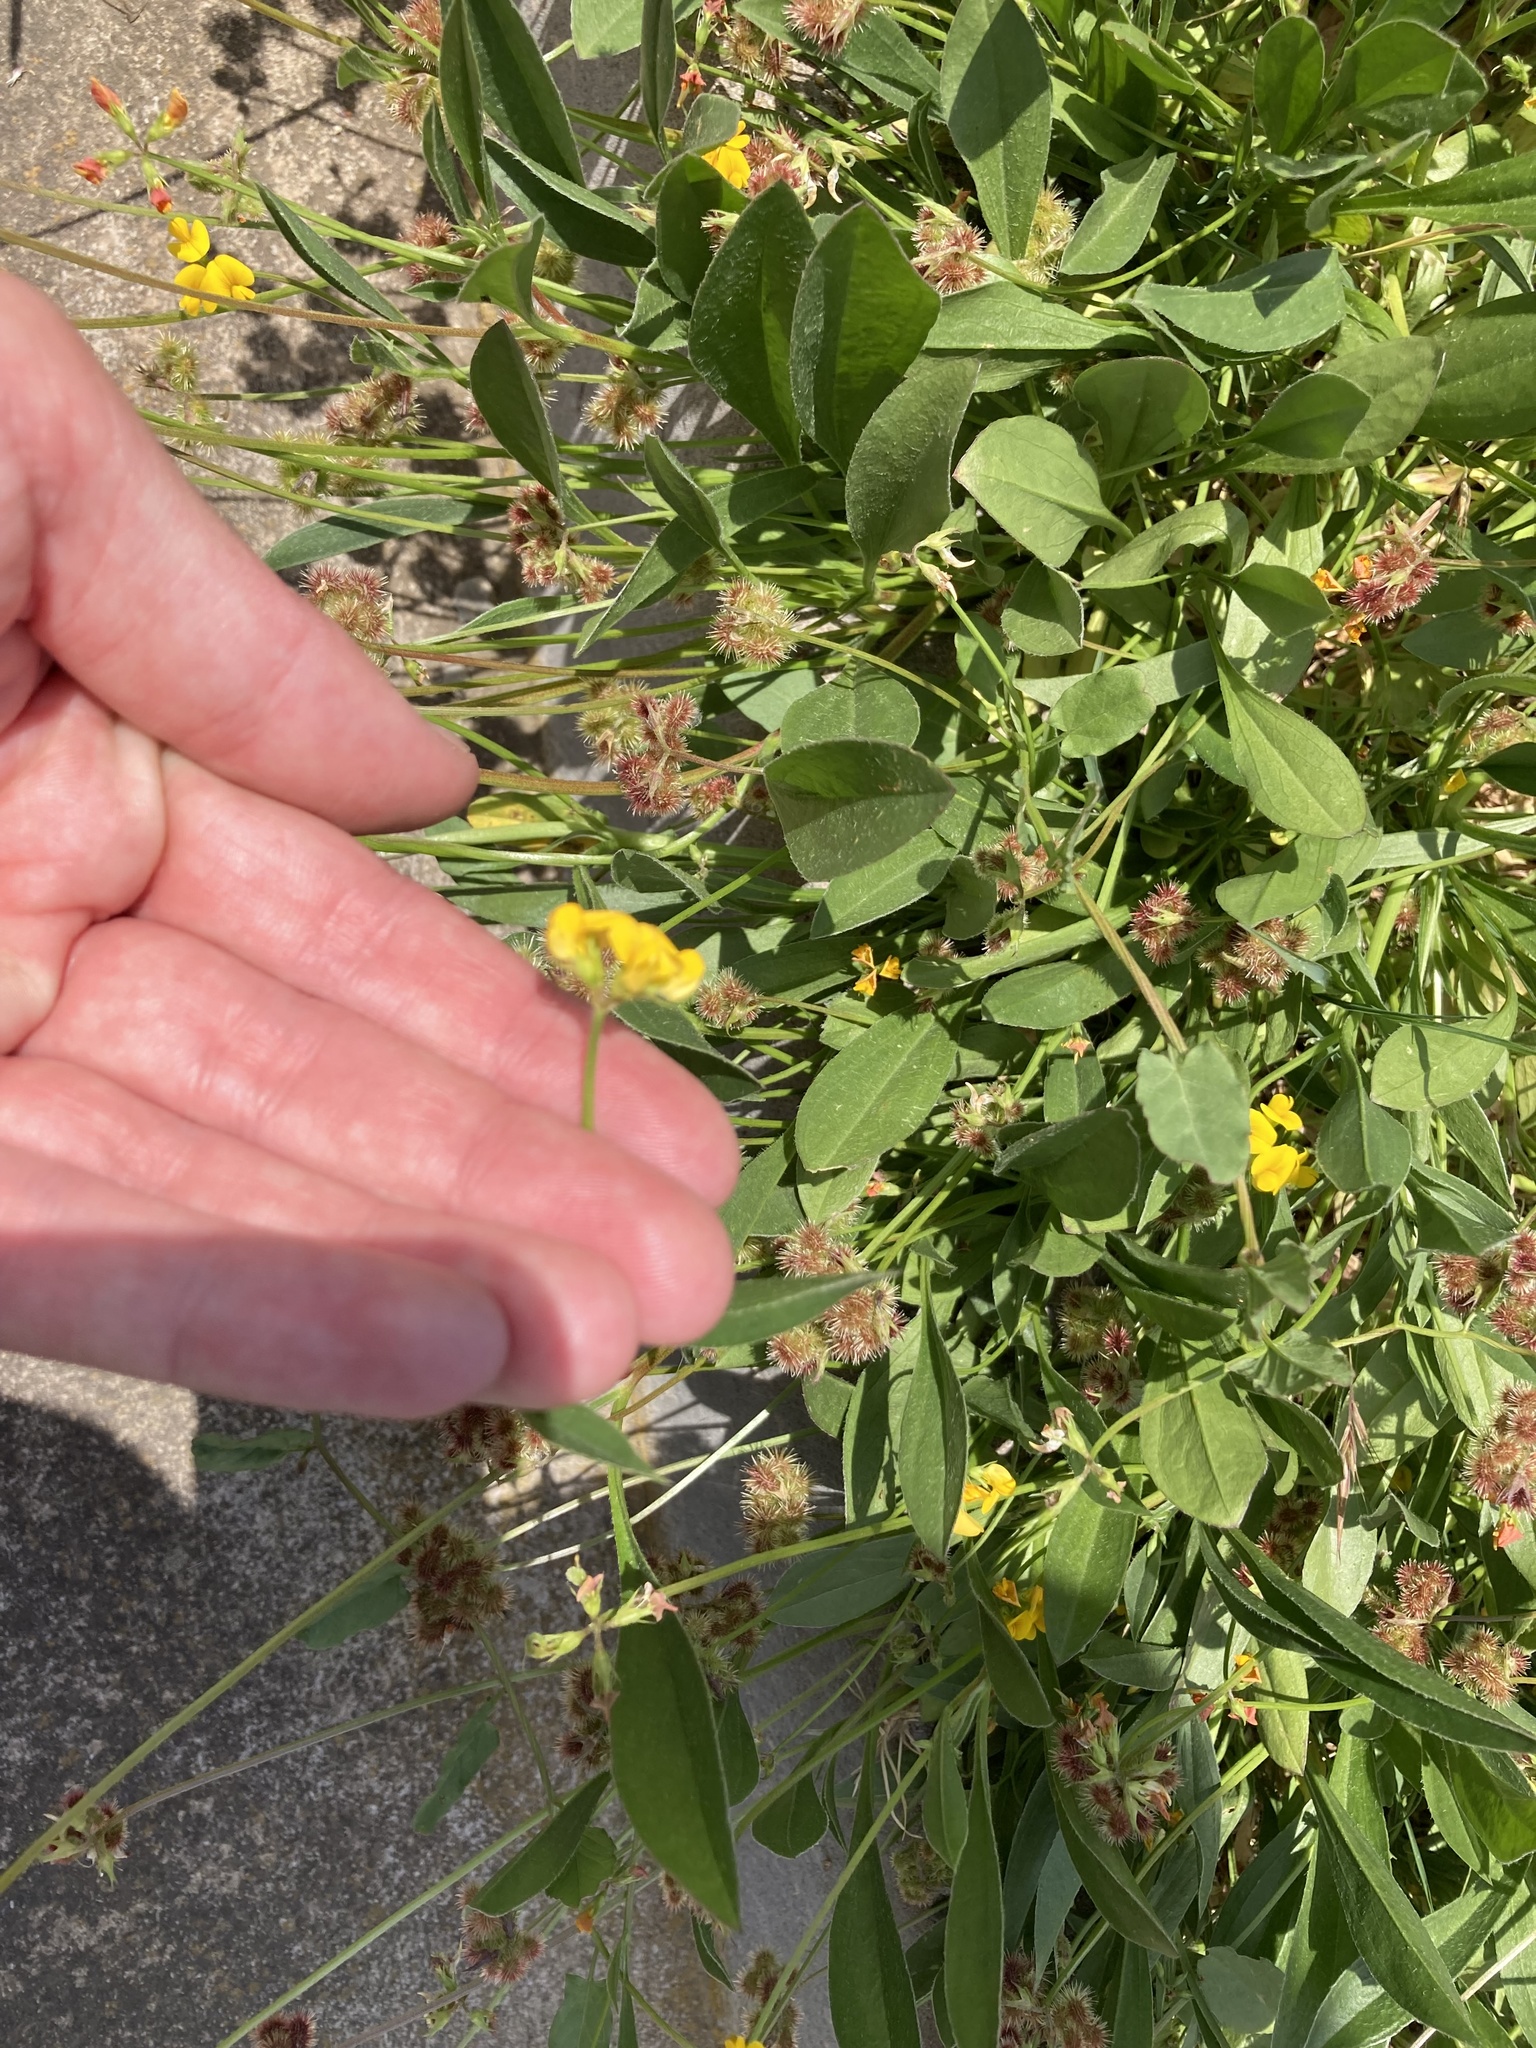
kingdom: Plantae
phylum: Tracheophyta
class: Magnoliopsida
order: Fabales
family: Fabaceae
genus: Scorpiurus
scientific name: Scorpiurus muricatus
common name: Caterpillar-plant
